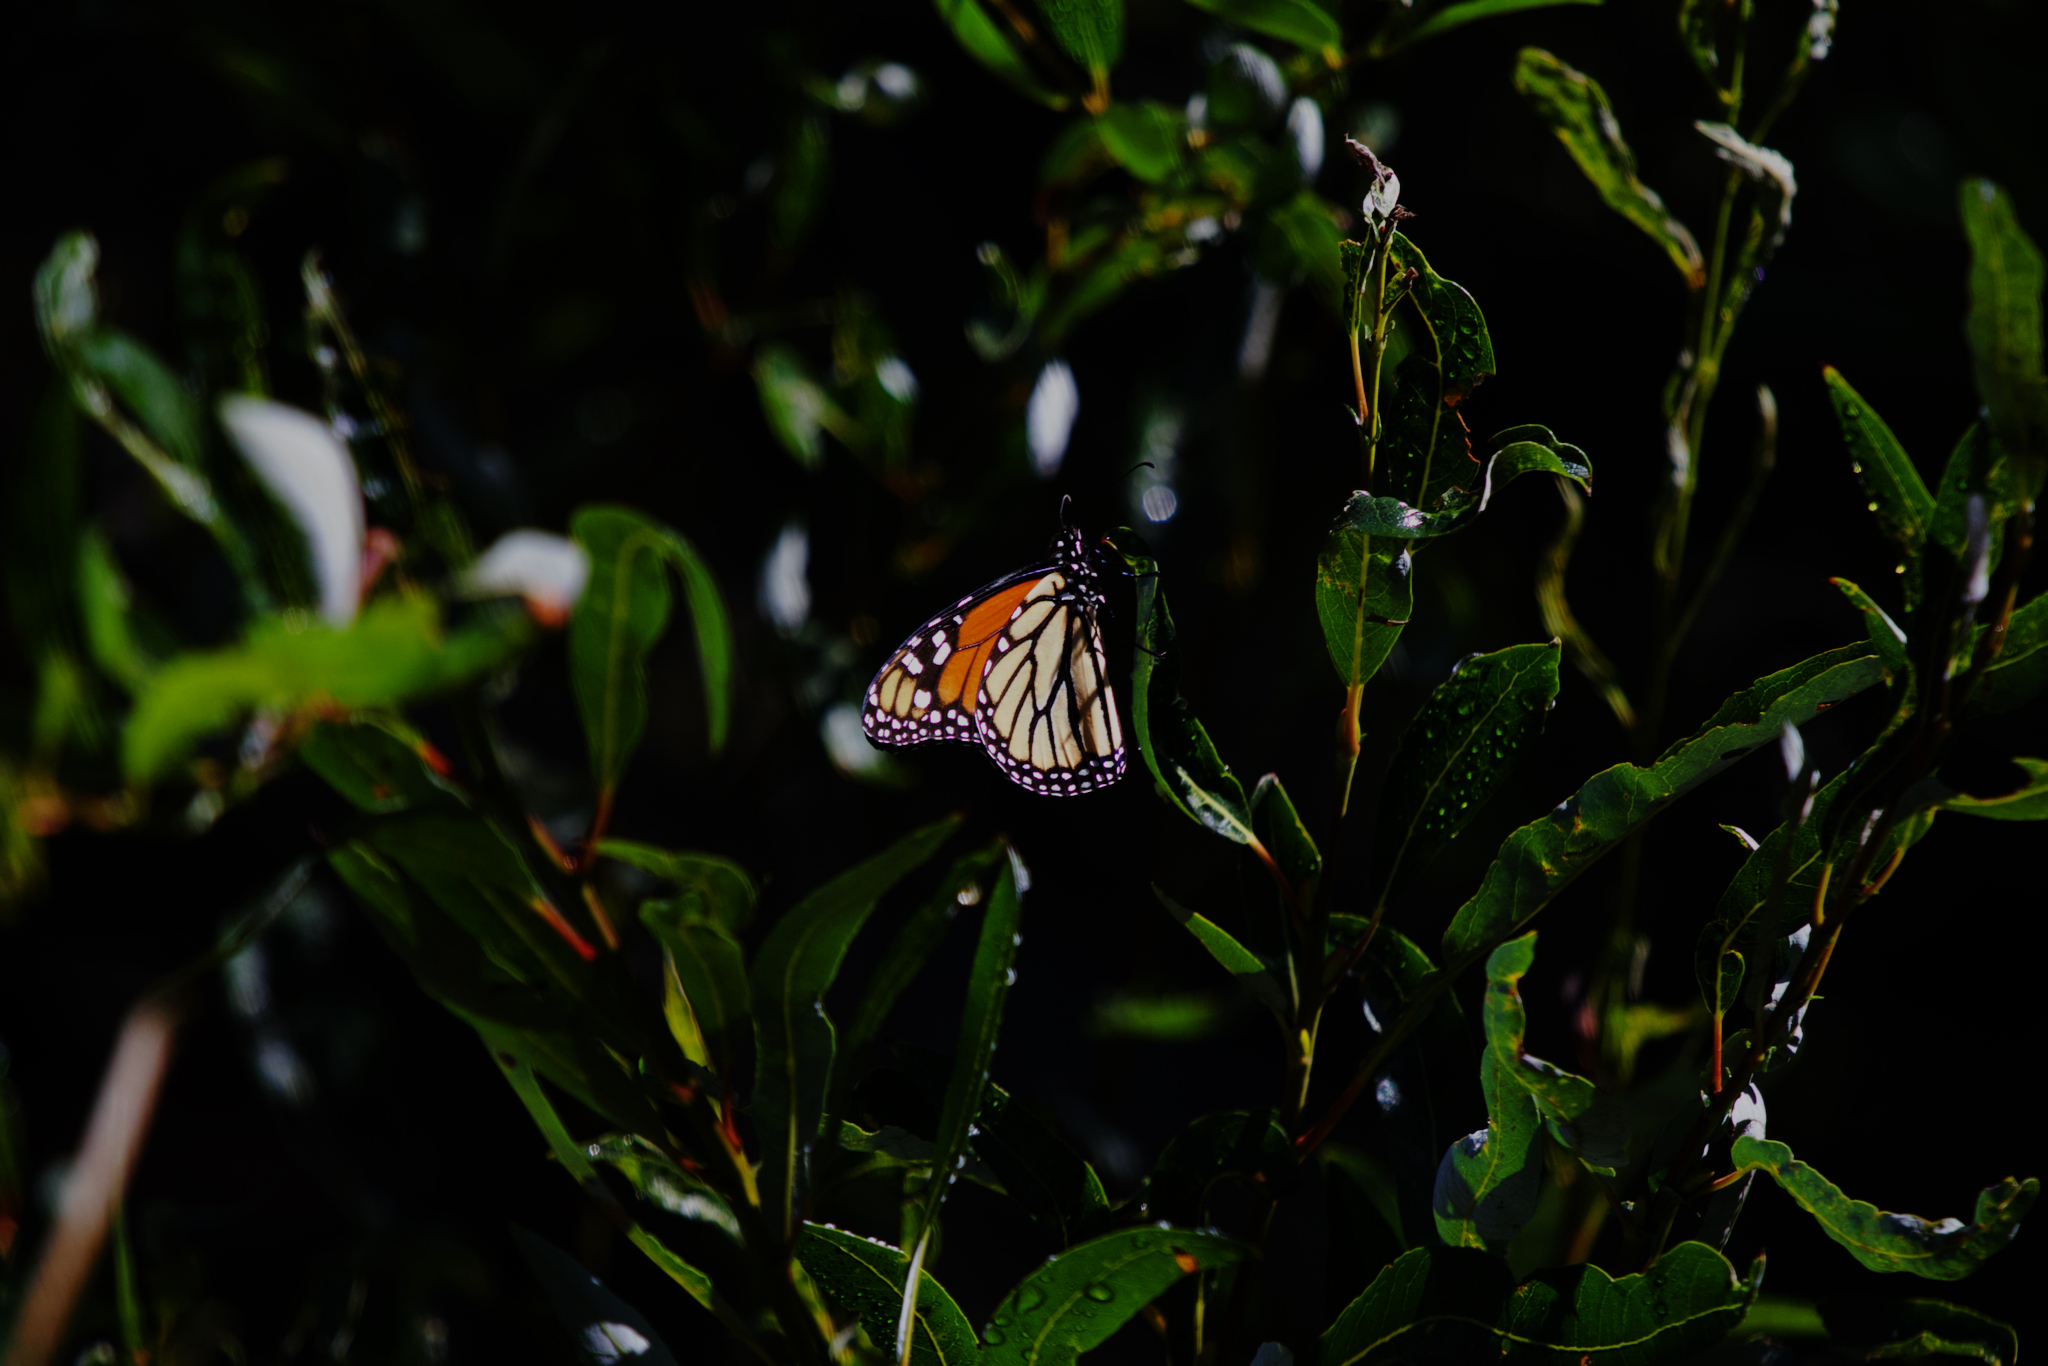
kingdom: Animalia
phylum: Arthropoda
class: Insecta
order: Lepidoptera
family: Nymphalidae
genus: Danaus
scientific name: Danaus plexippus
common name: Monarch
